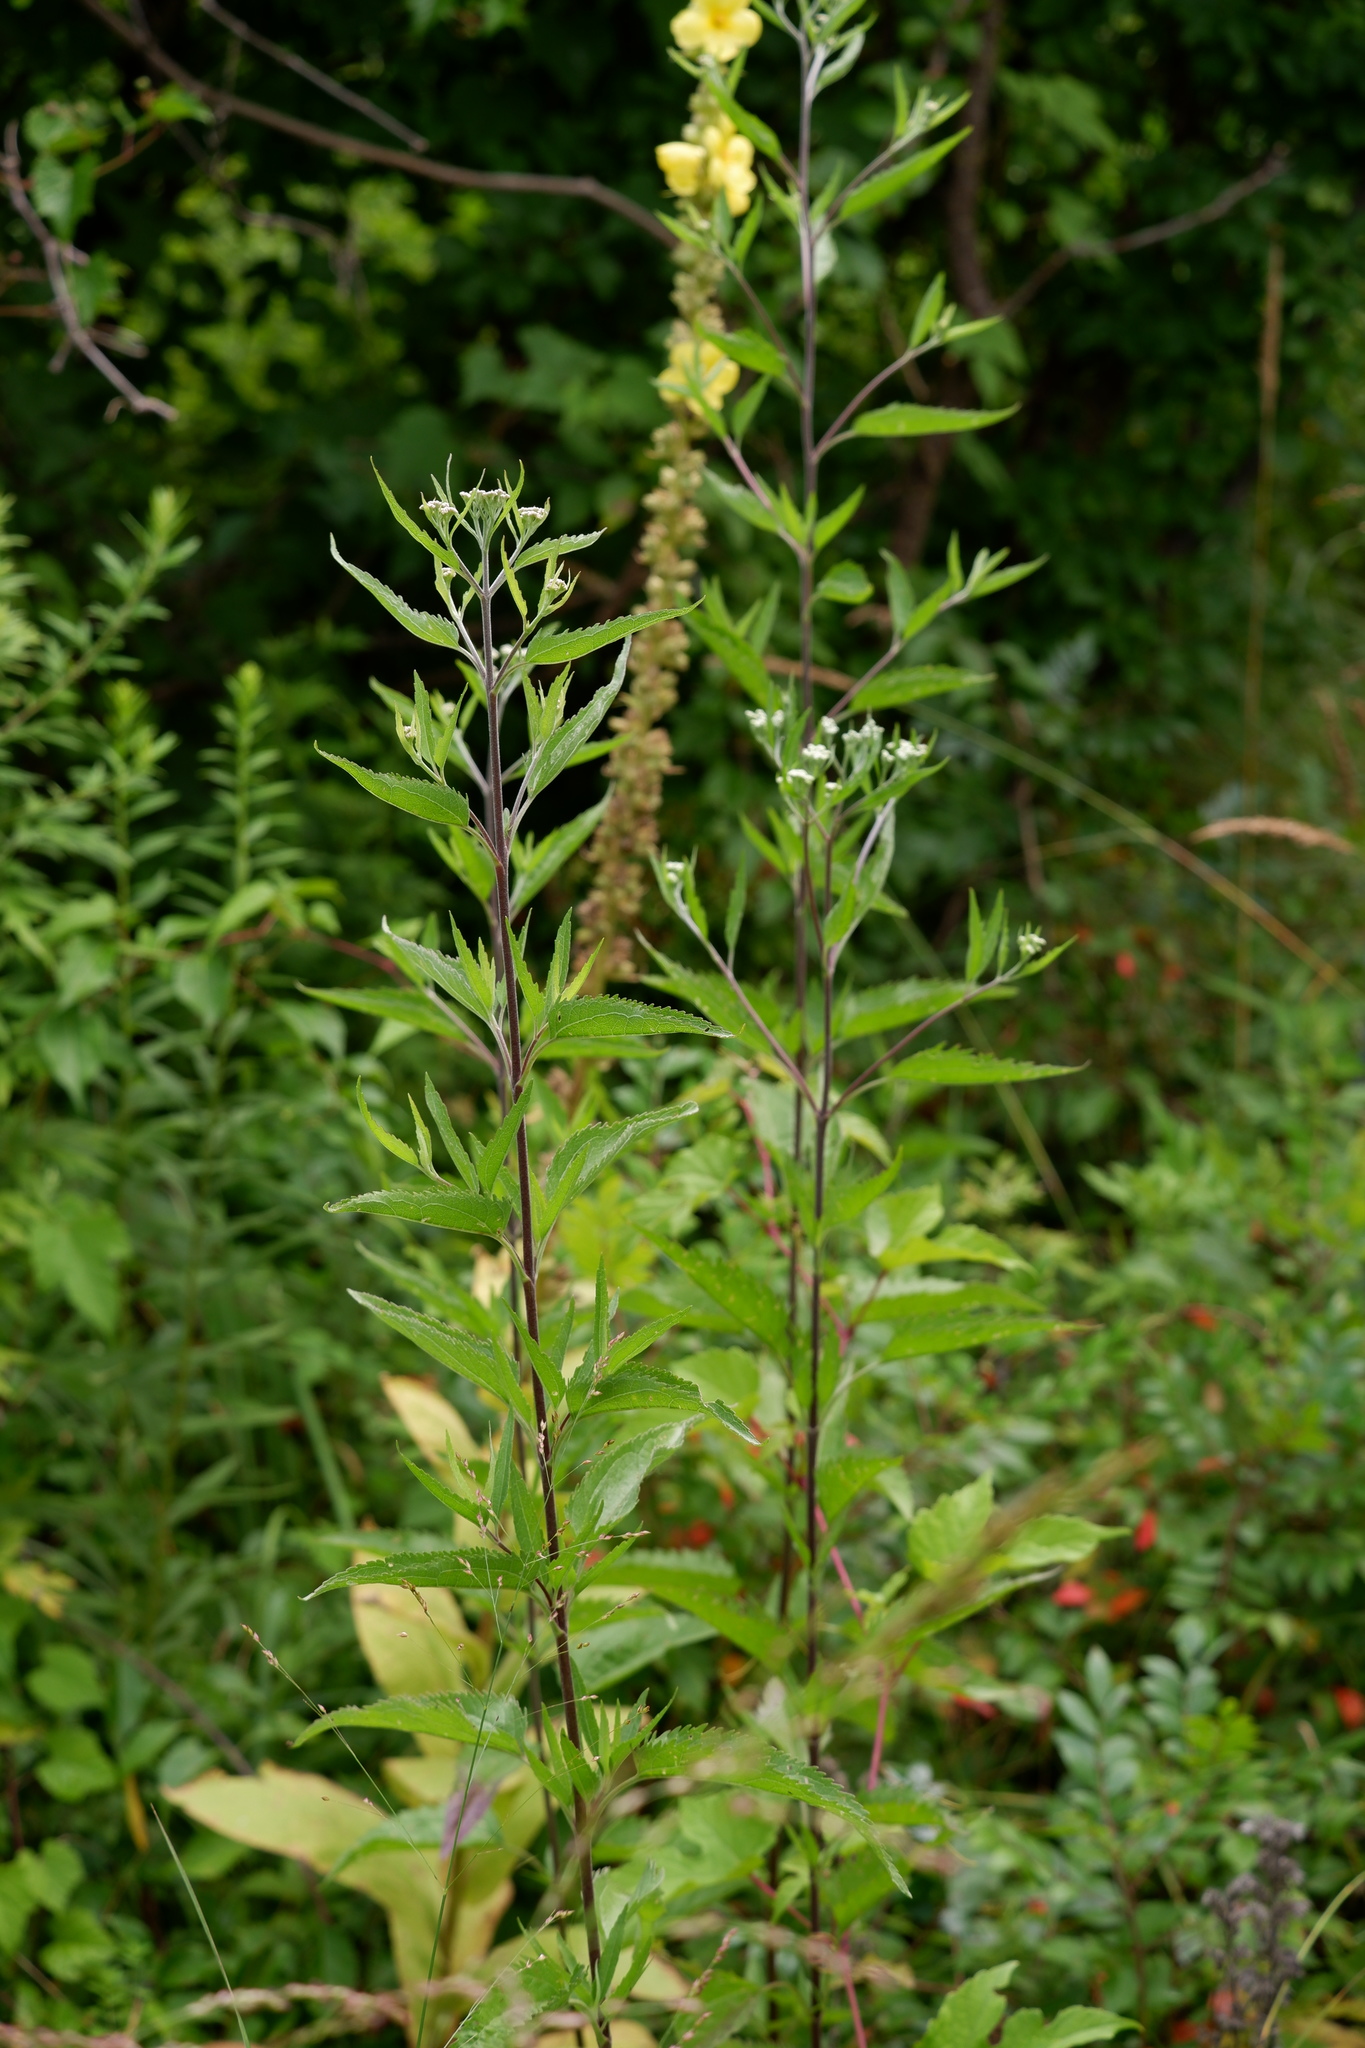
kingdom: Plantae
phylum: Tracheophyta
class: Magnoliopsida
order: Asterales
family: Asteraceae
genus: Eupatorium
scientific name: Eupatorium serotinum
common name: Late boneset
